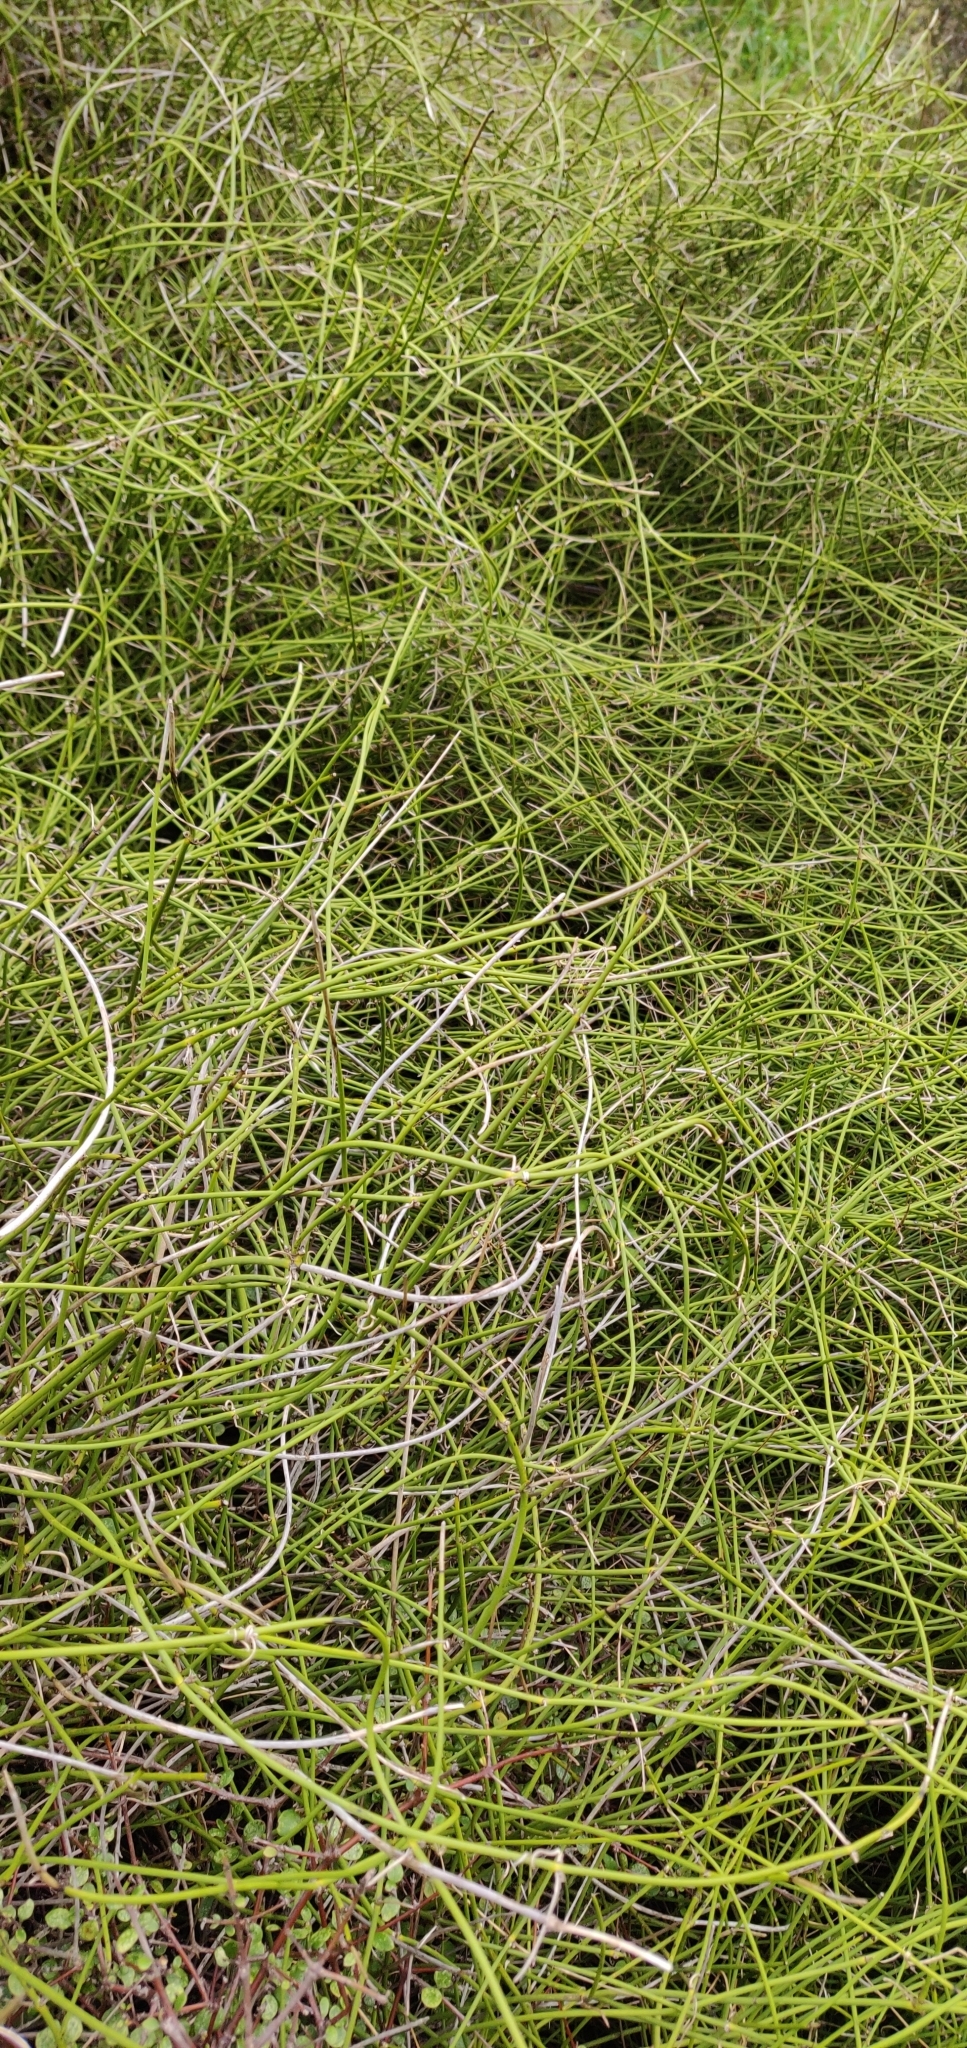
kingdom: Plantae
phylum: Tracheophyta
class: Magnoliopsida
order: Ranunculales
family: Ranunculaceae
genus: Clematis
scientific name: Clematis afoliata
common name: Rush-stem clematis
